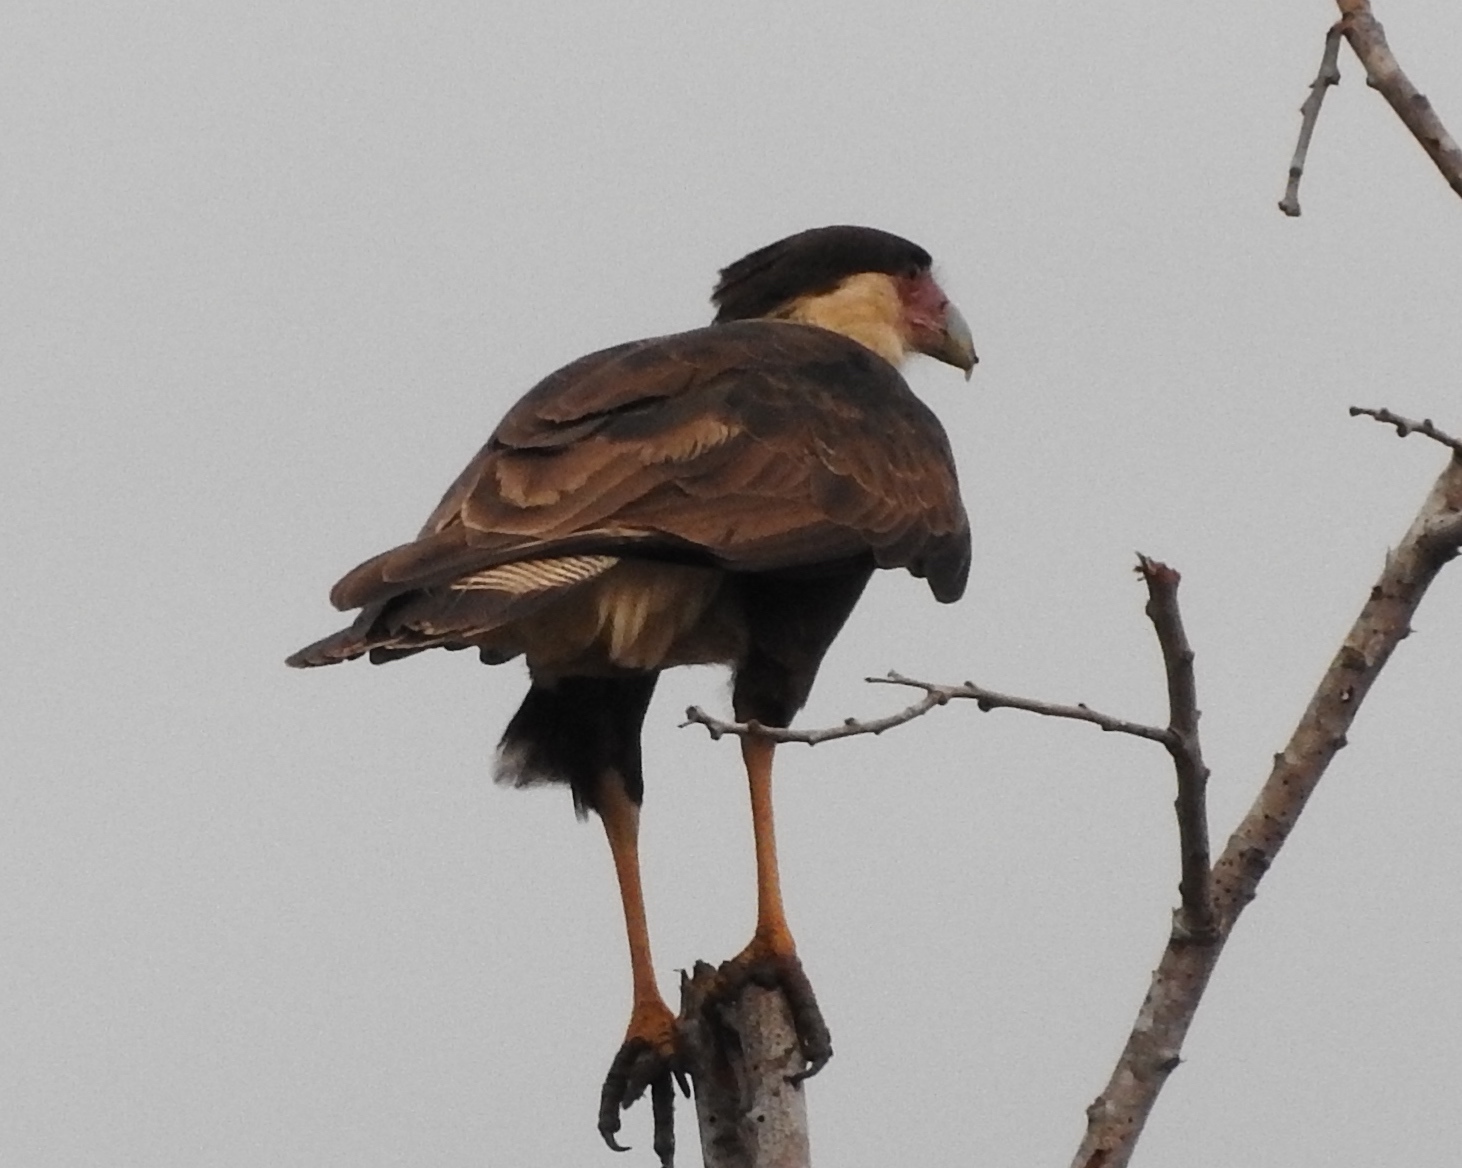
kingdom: Animalia
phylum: Chordata
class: Aves
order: Falconiformes
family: Falconidae
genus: Caracara
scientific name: Caracara plancus
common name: Southern caracara
